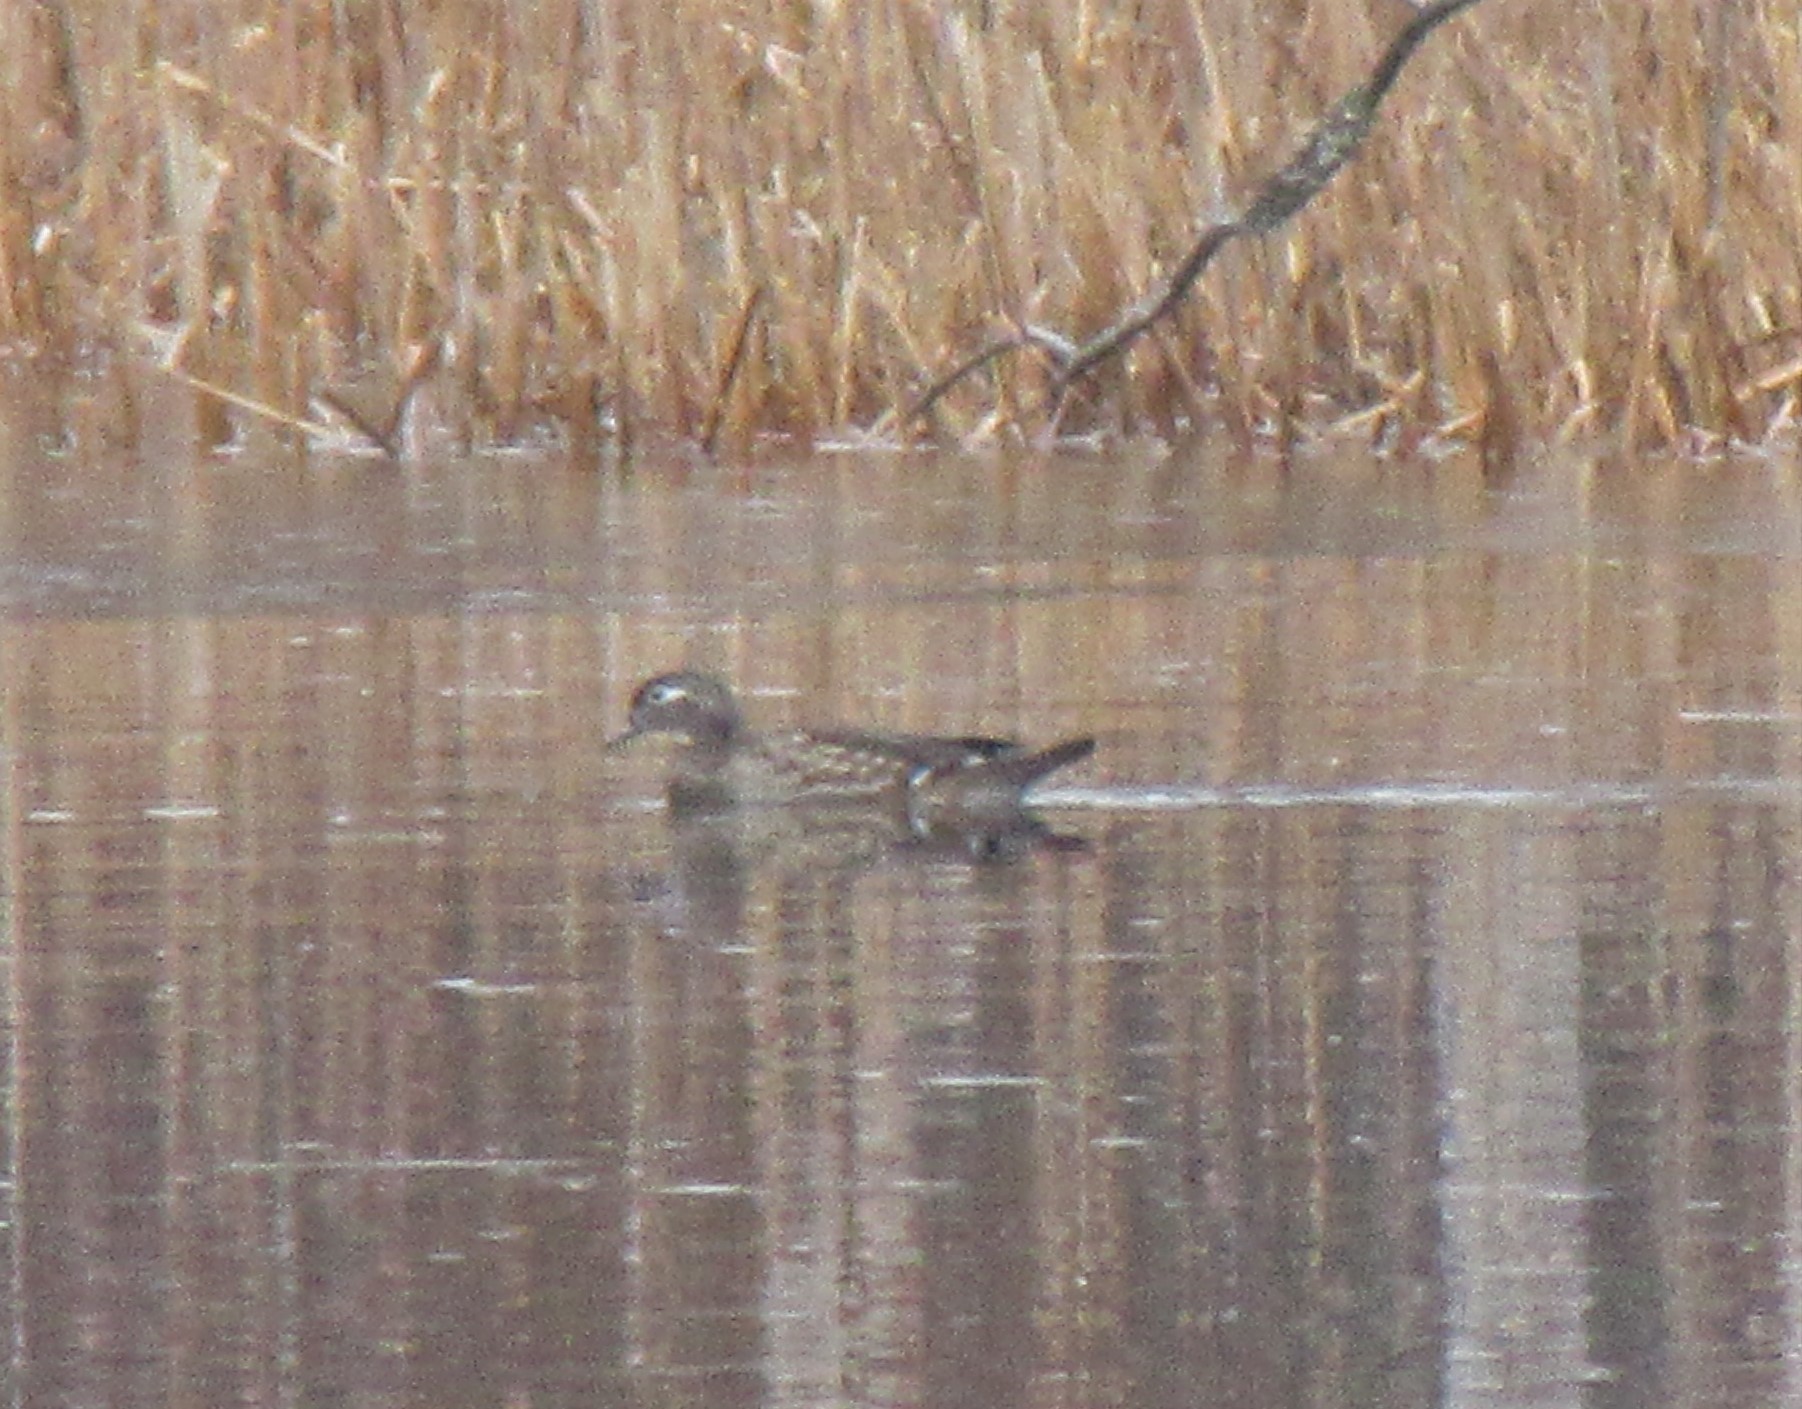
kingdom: Animalia
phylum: Chordata
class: Aves
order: Anseriformes
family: Anatidae
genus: Aix
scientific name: Aix sponsa
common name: Wood duck
